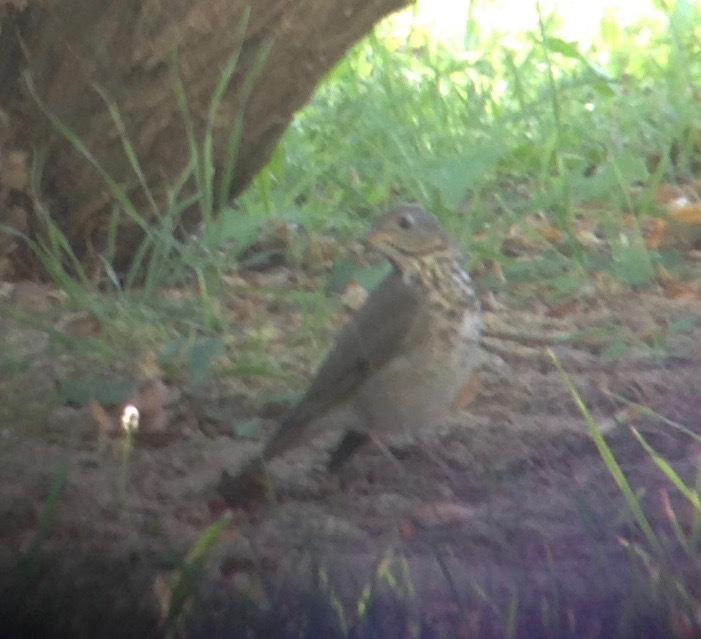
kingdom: Animalia
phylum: Chordata
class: Aves
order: Passeriformes
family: Turdidae
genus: Catharus
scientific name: Catharus minimus
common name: Grey-cheeked thrush
